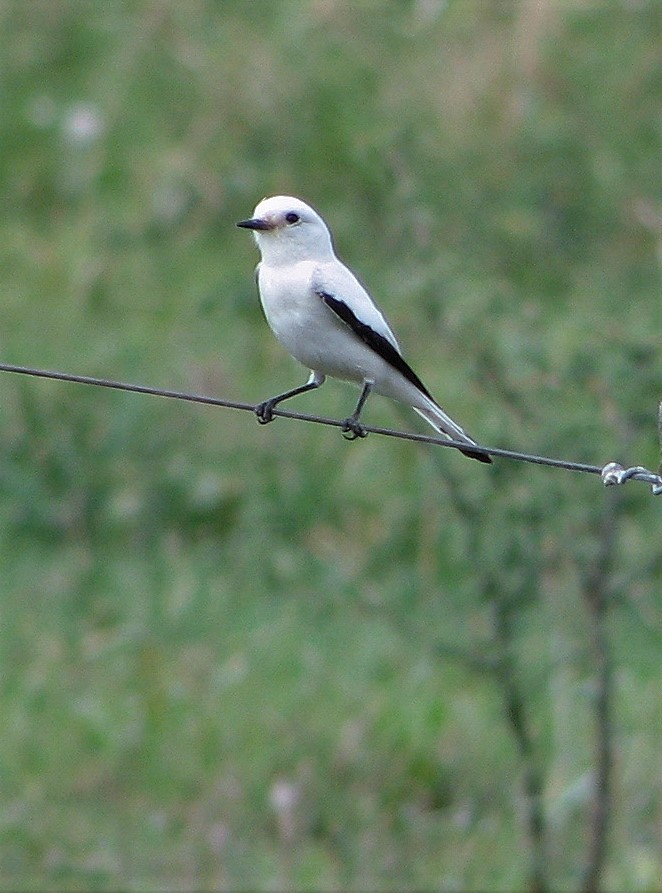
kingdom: Animalia
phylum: Chordata
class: Aves
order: Passeriformes
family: Tyrannidae
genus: Xolmis
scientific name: Xolmis irupero
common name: White monjita
